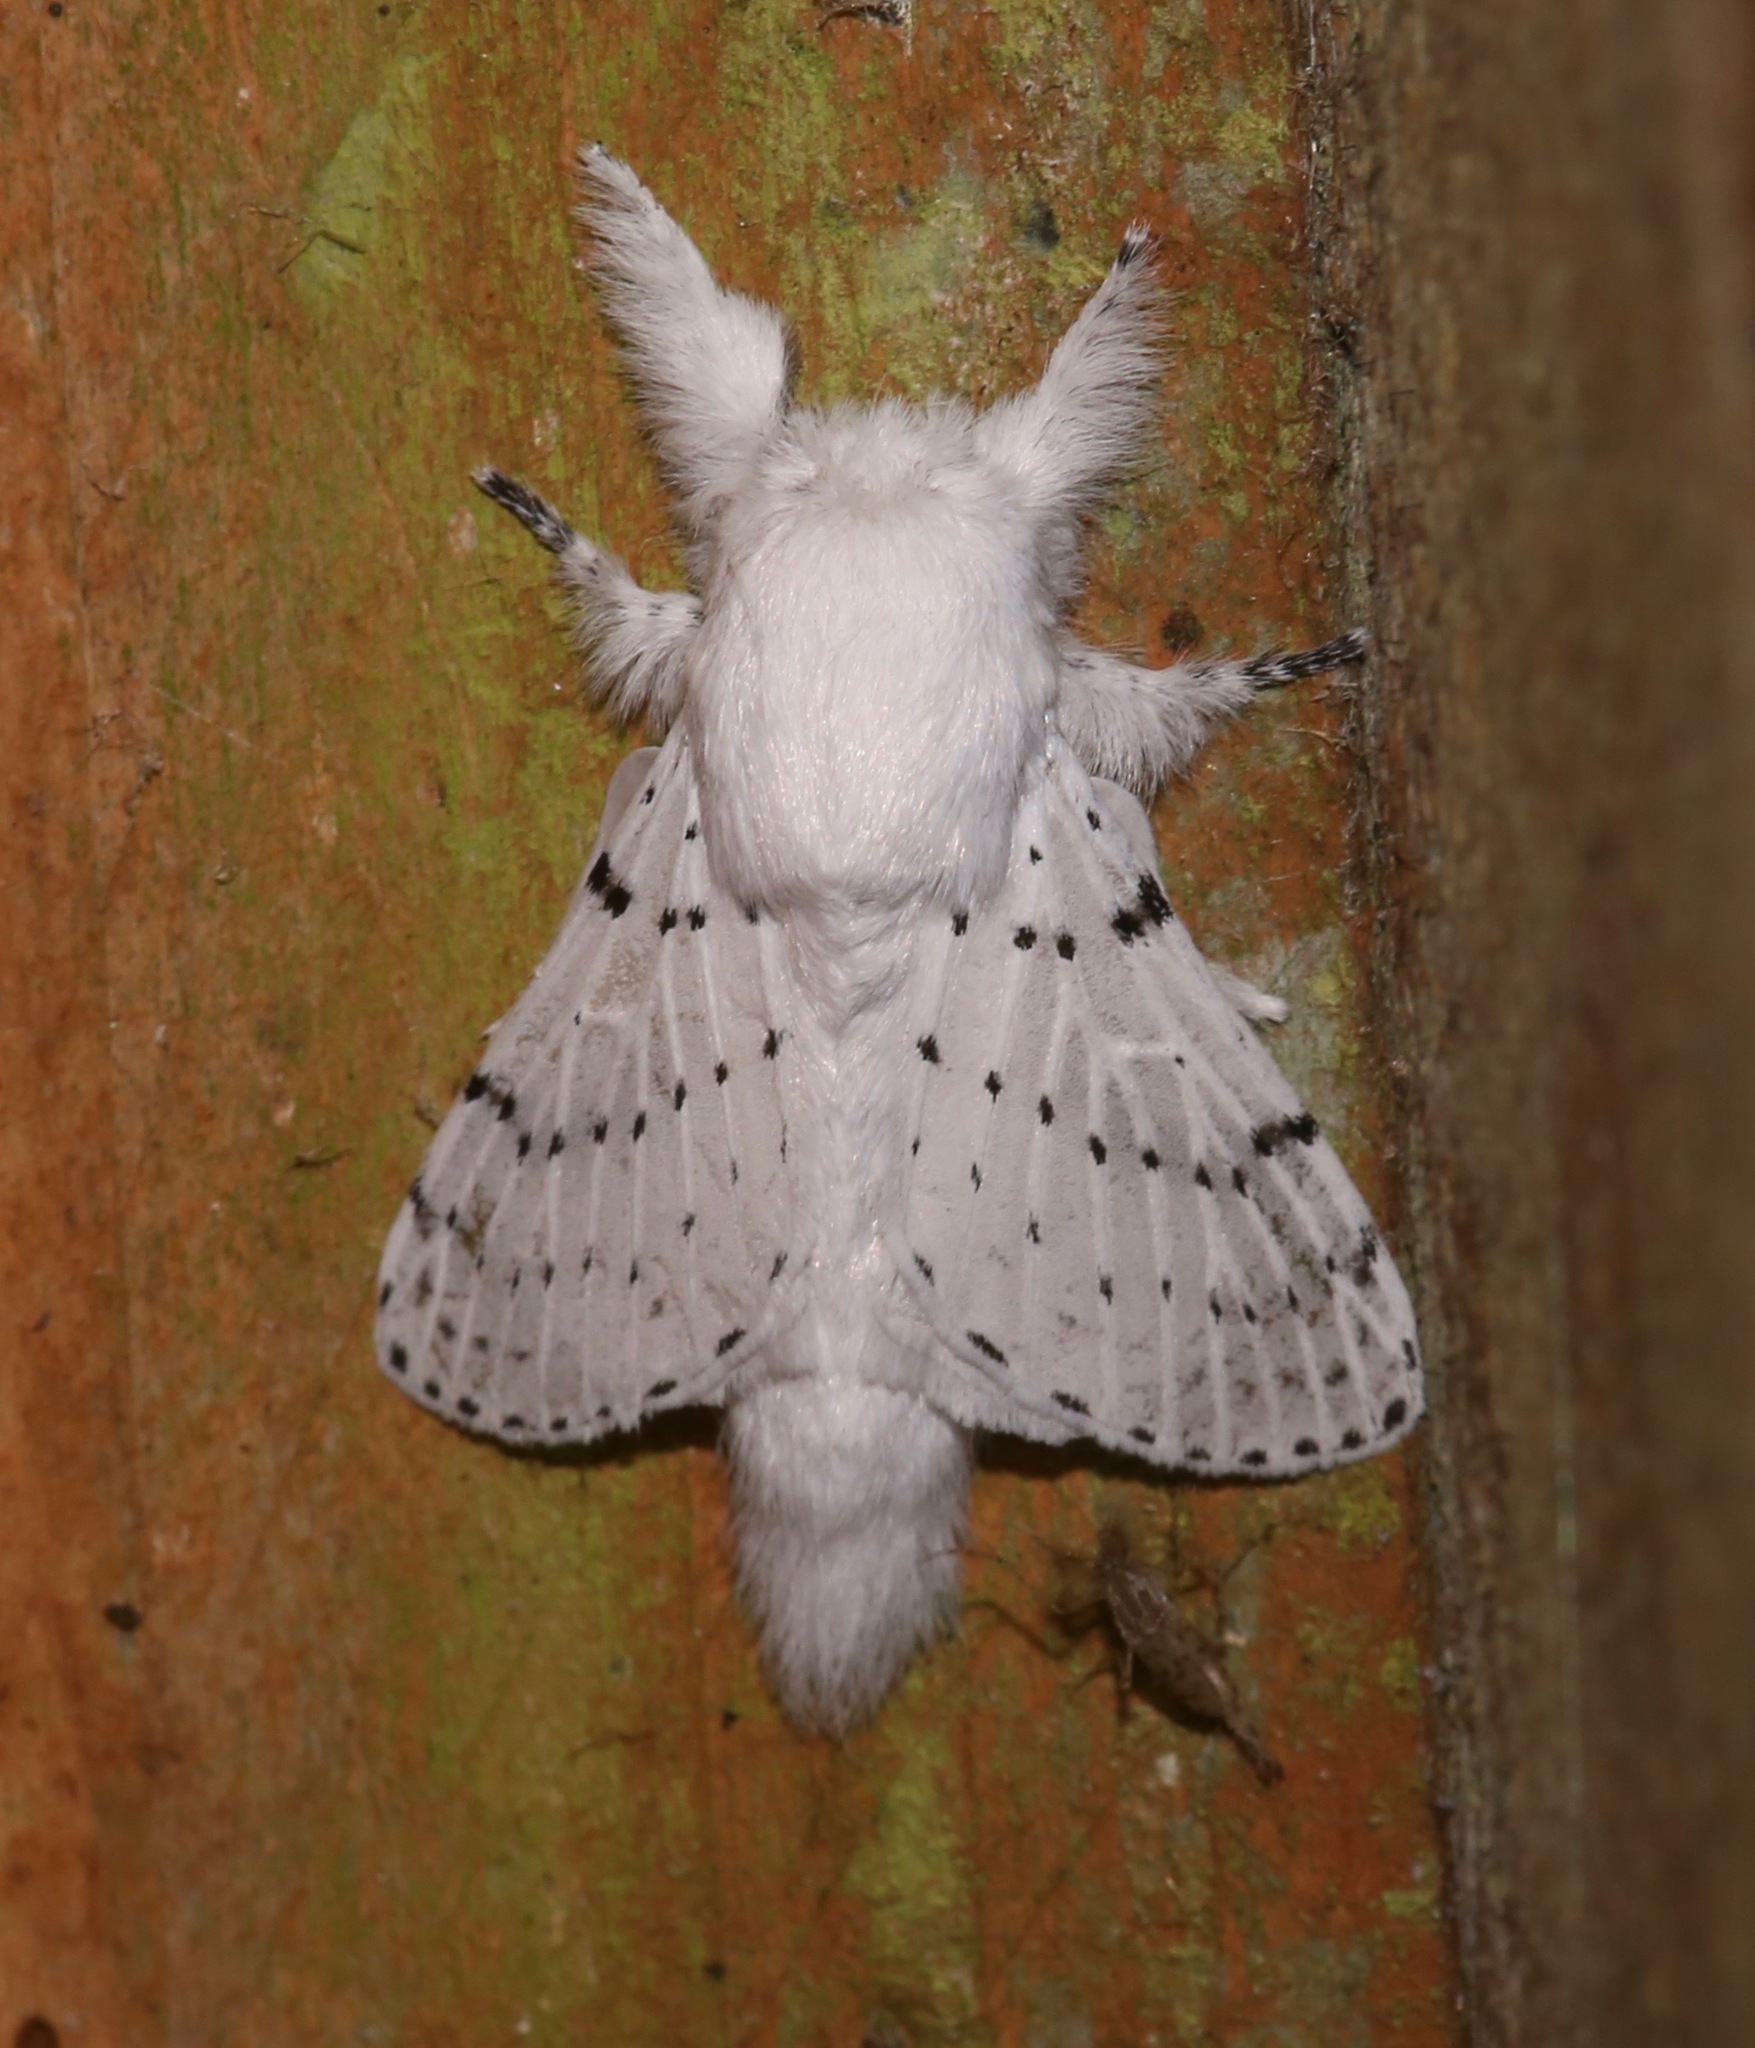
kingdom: Animalia
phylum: Arthropoda
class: Insecta
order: Lepidoptera
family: Lasiocampidae
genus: Artace
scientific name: Artace cribrarius
